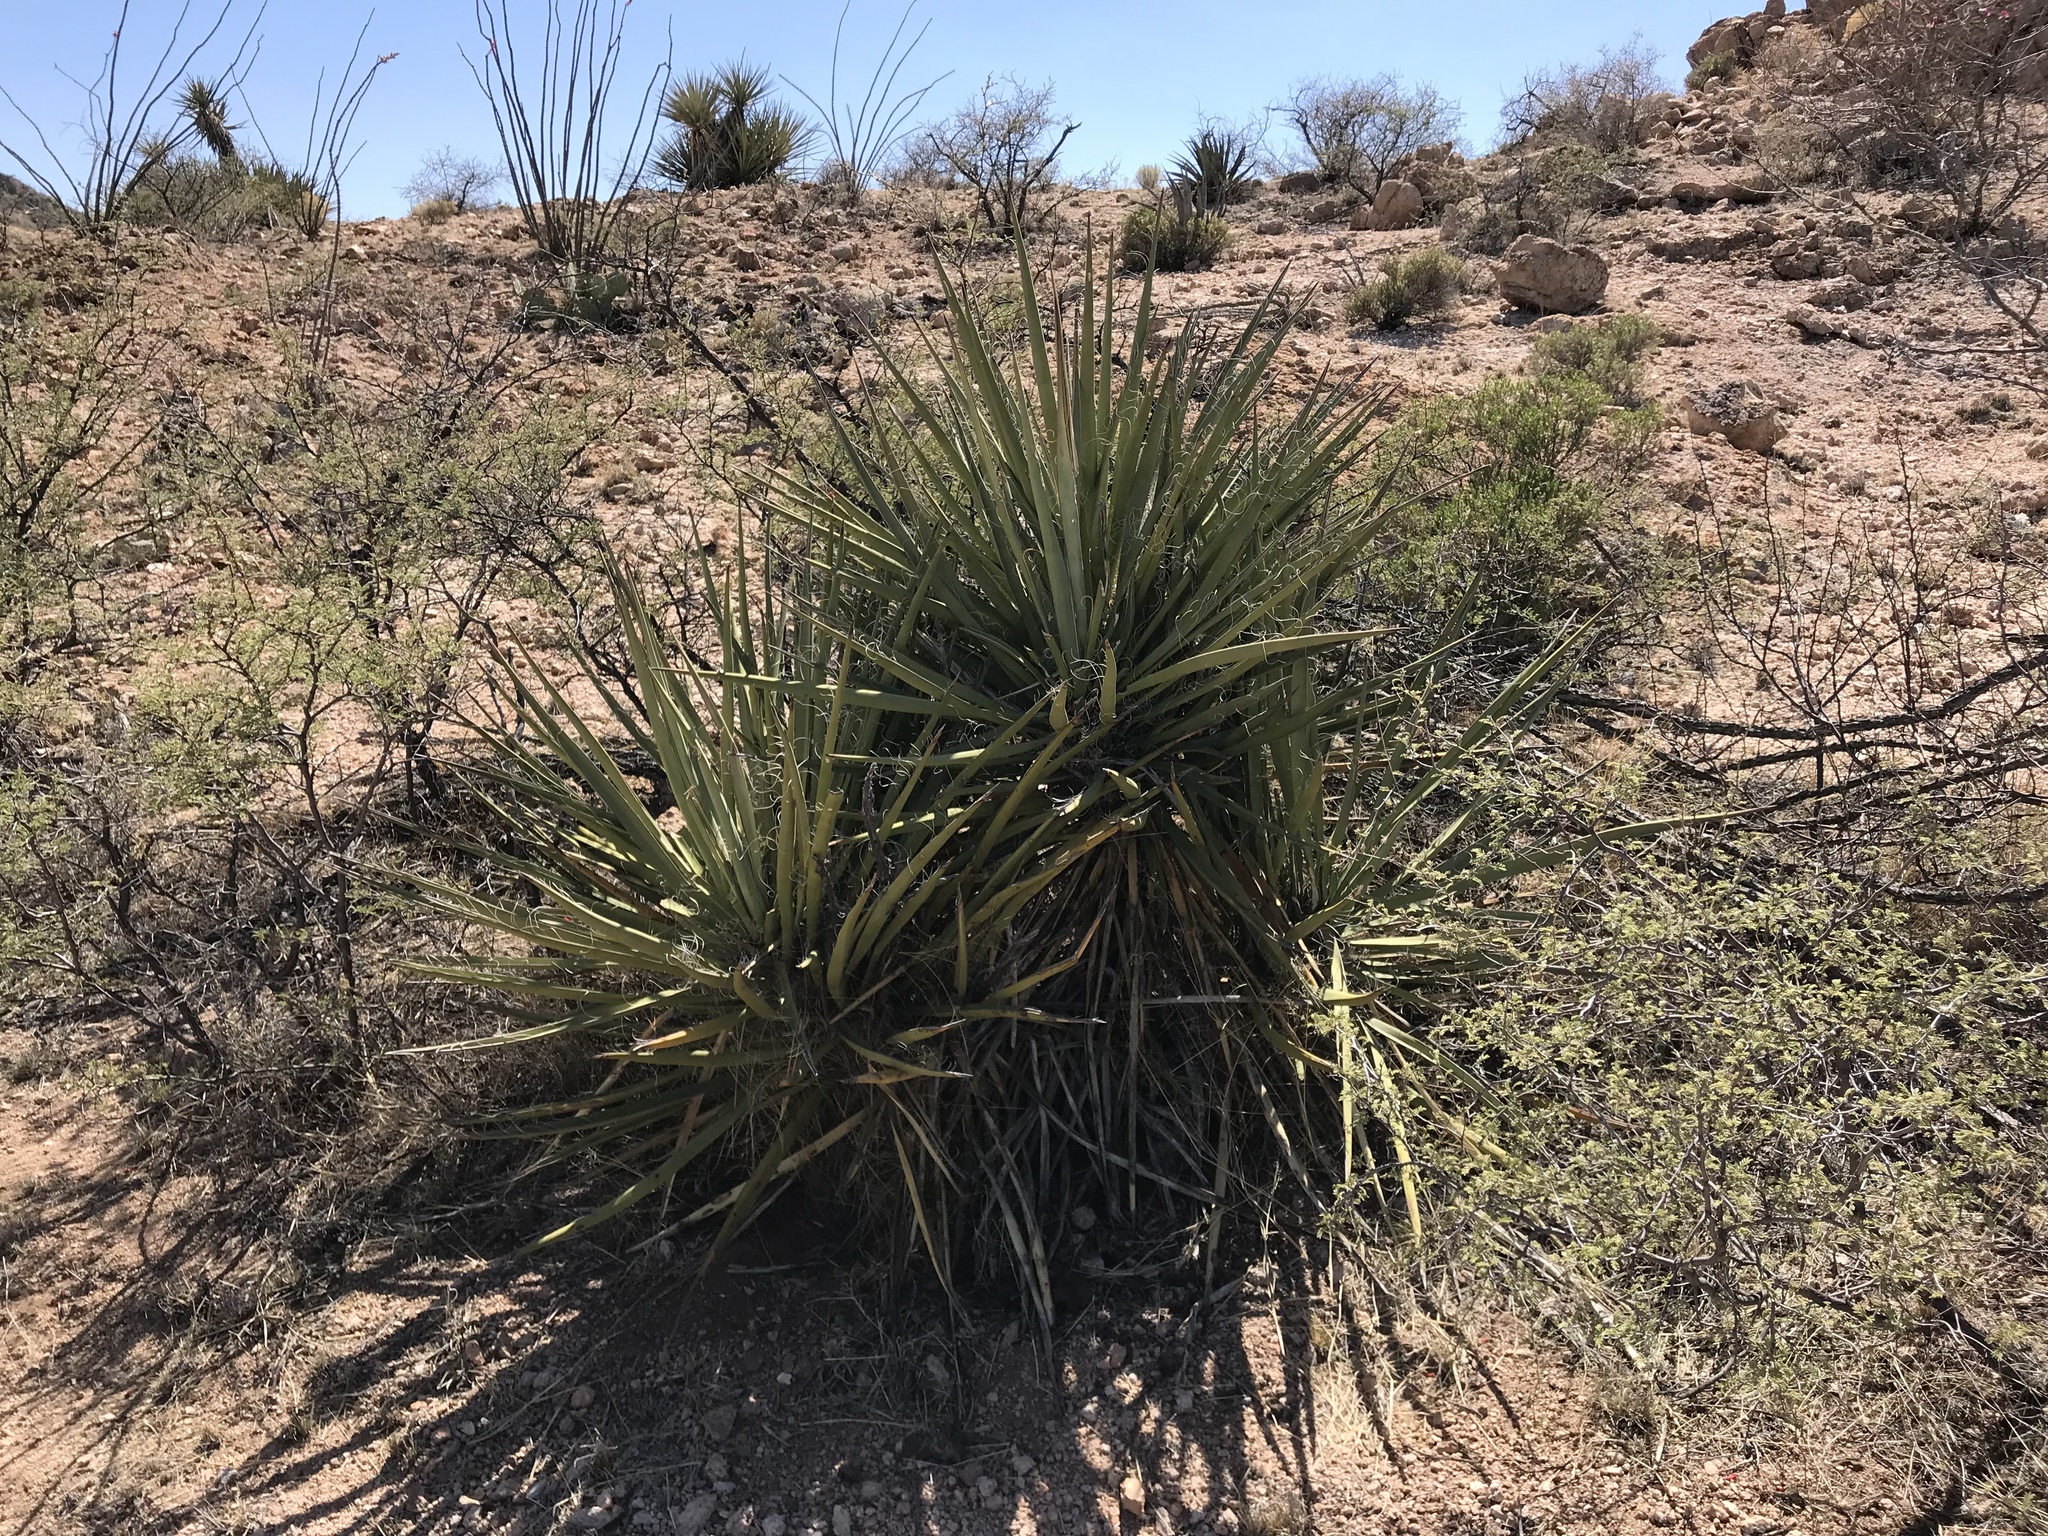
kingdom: Plantae
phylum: Tracheophyta
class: Liliopsida
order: Asparagales
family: Asparagaceae
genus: Yucca
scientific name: Yucca baccata
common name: Banana yucca
